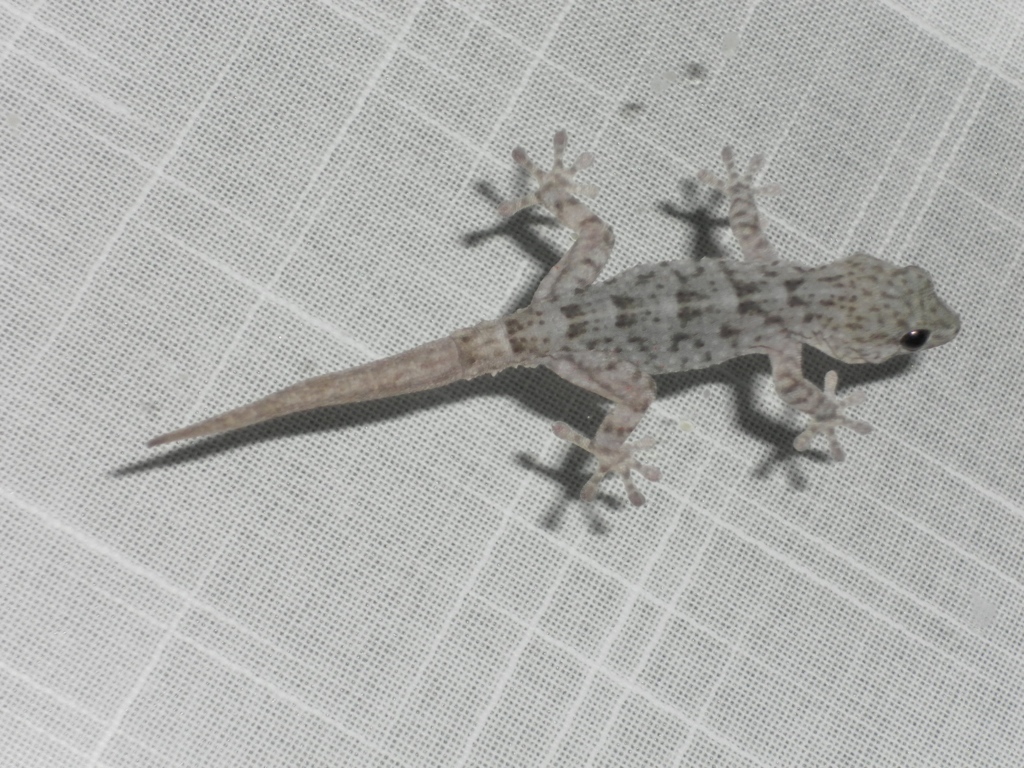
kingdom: Animalia
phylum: Chordata
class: Squamata
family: Phyllodactylidae
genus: Tarentola
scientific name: Tarentola delalandii
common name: Tenerife wall gecko
